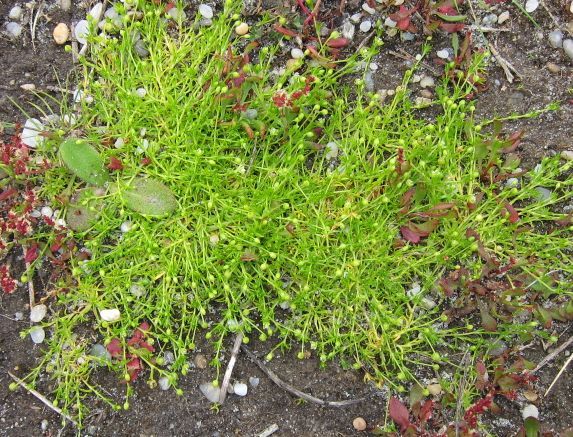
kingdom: Plantae
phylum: Tracheophyta
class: Magnoliopsida
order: Caryophyllales
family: Caryophyllaceae
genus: Sagina
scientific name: Sagina procumbens
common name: Procumbent pearlwort
